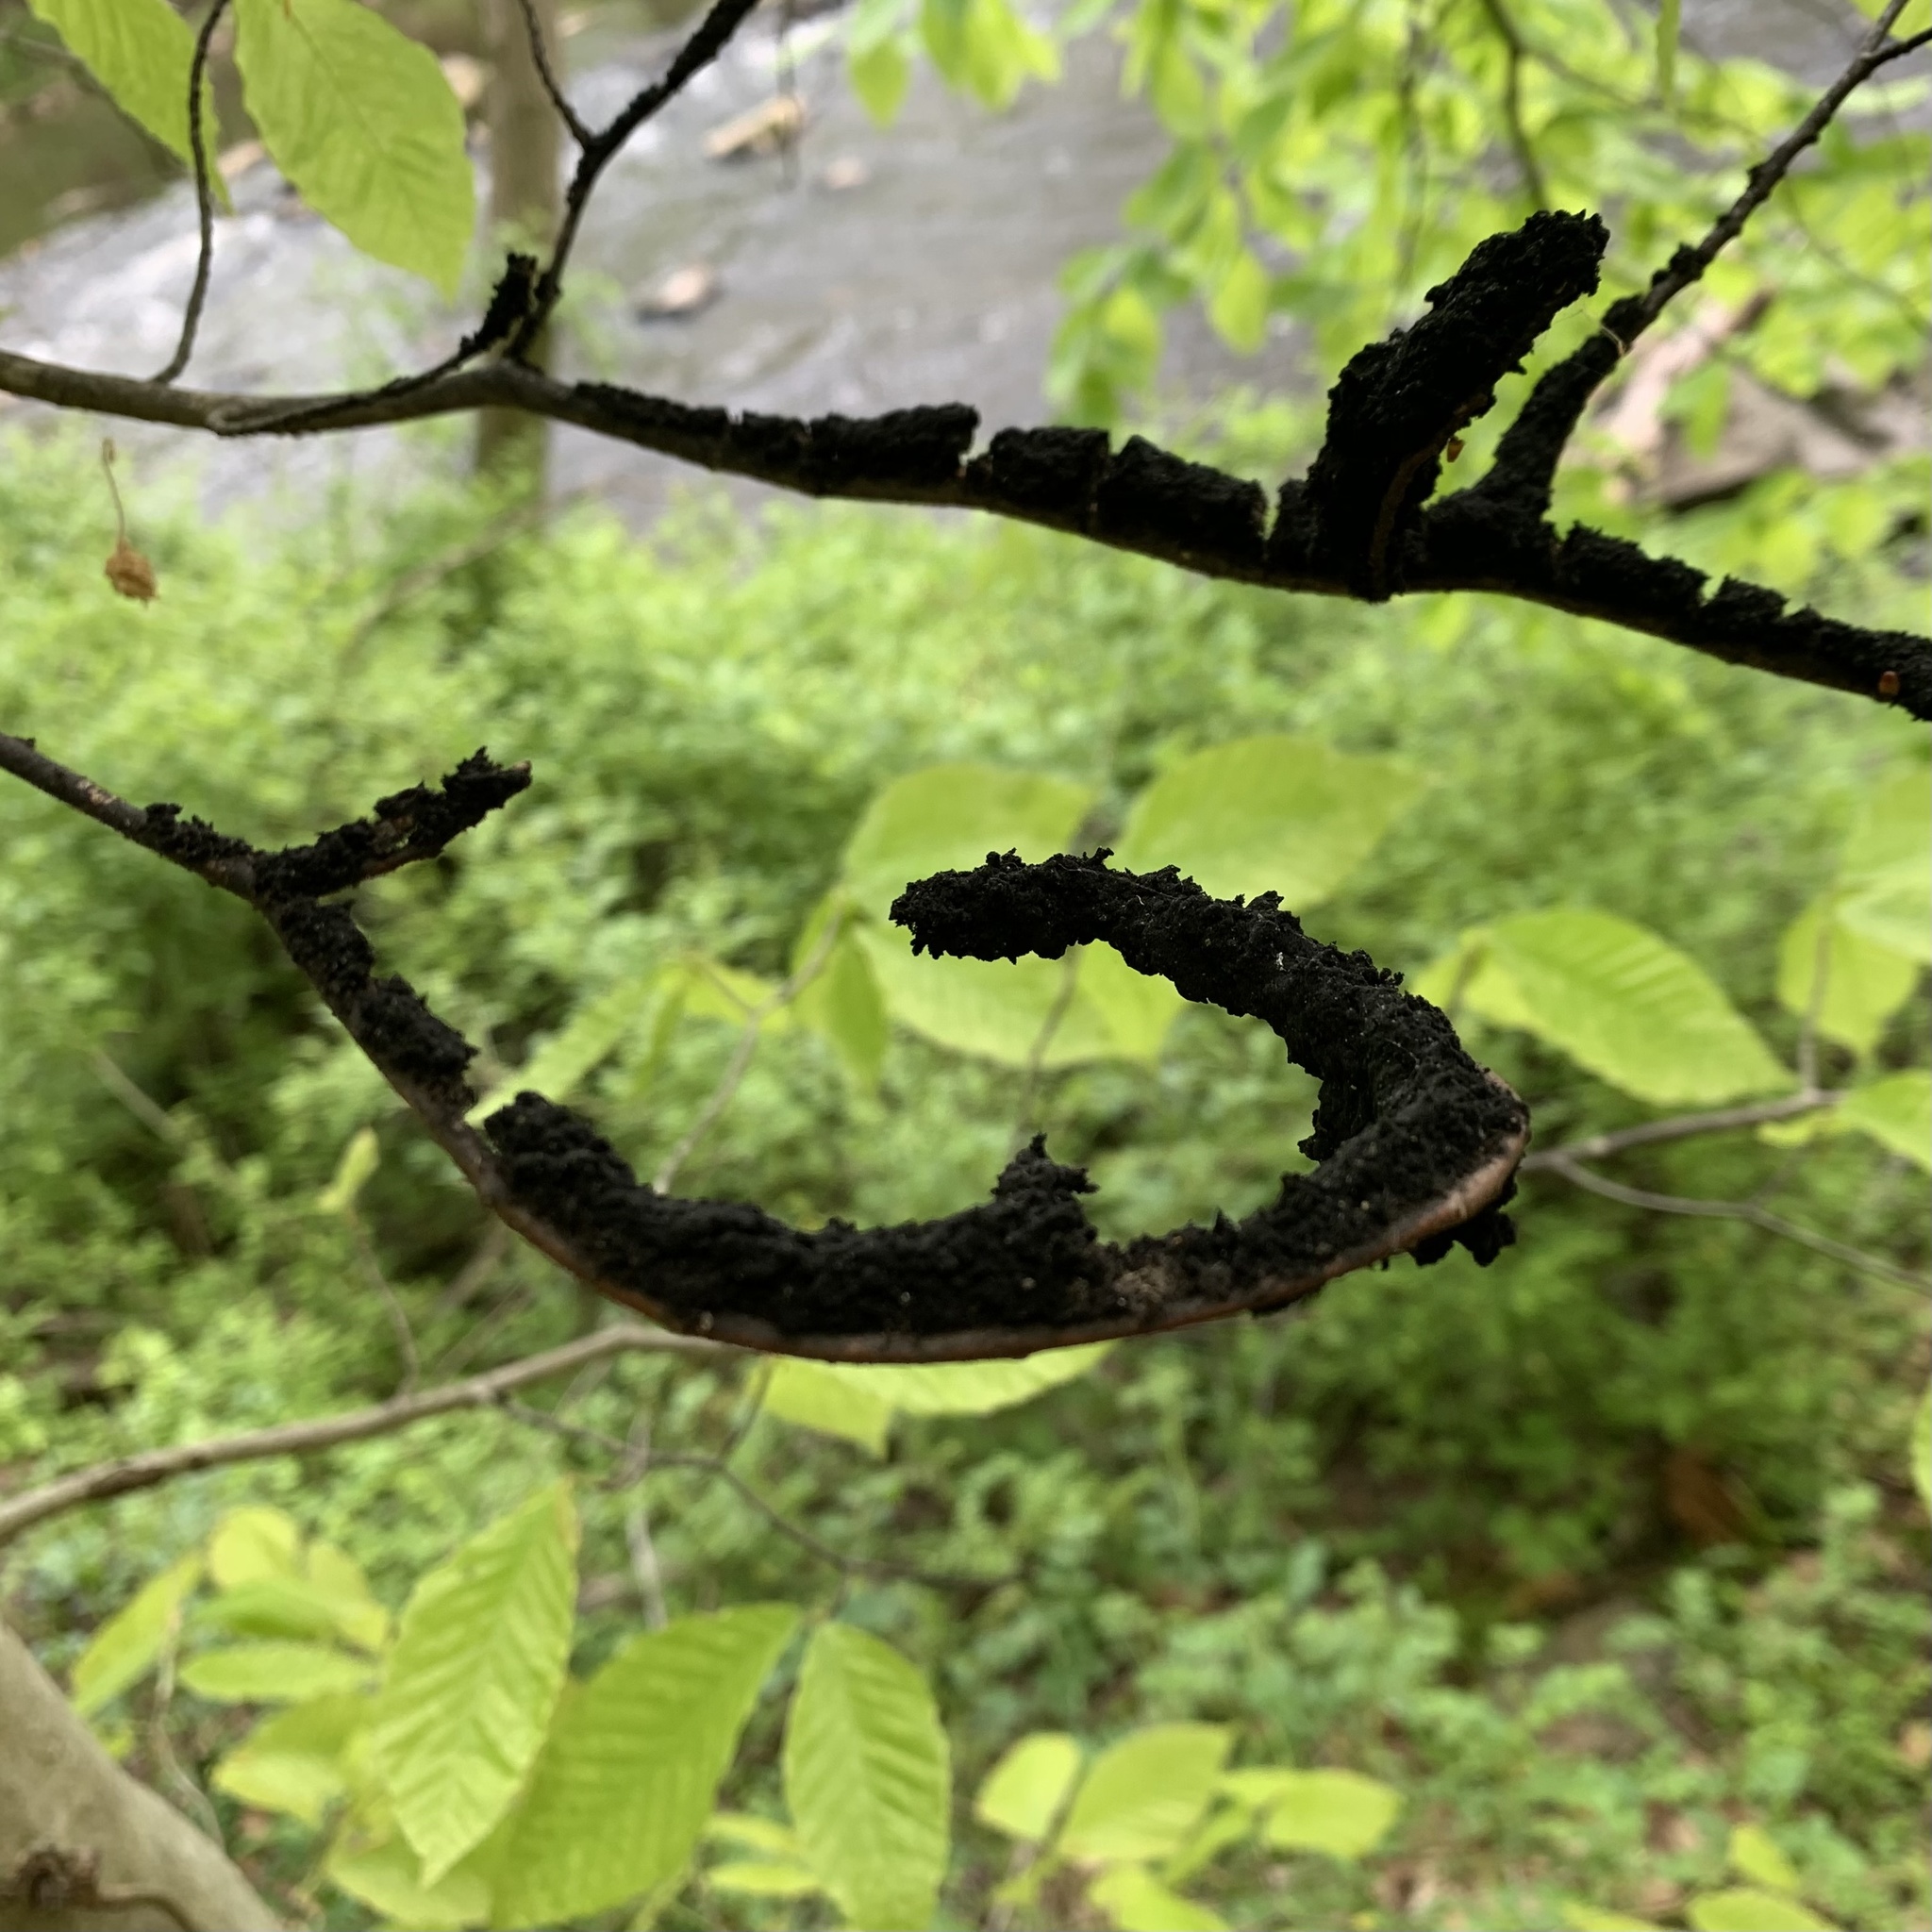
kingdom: Fungi
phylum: Ascomycota
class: Dothideomycetes
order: Capnodiales
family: Capnodiaceae
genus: Scorias
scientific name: Scorias spongiosa
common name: Black sooty mold
